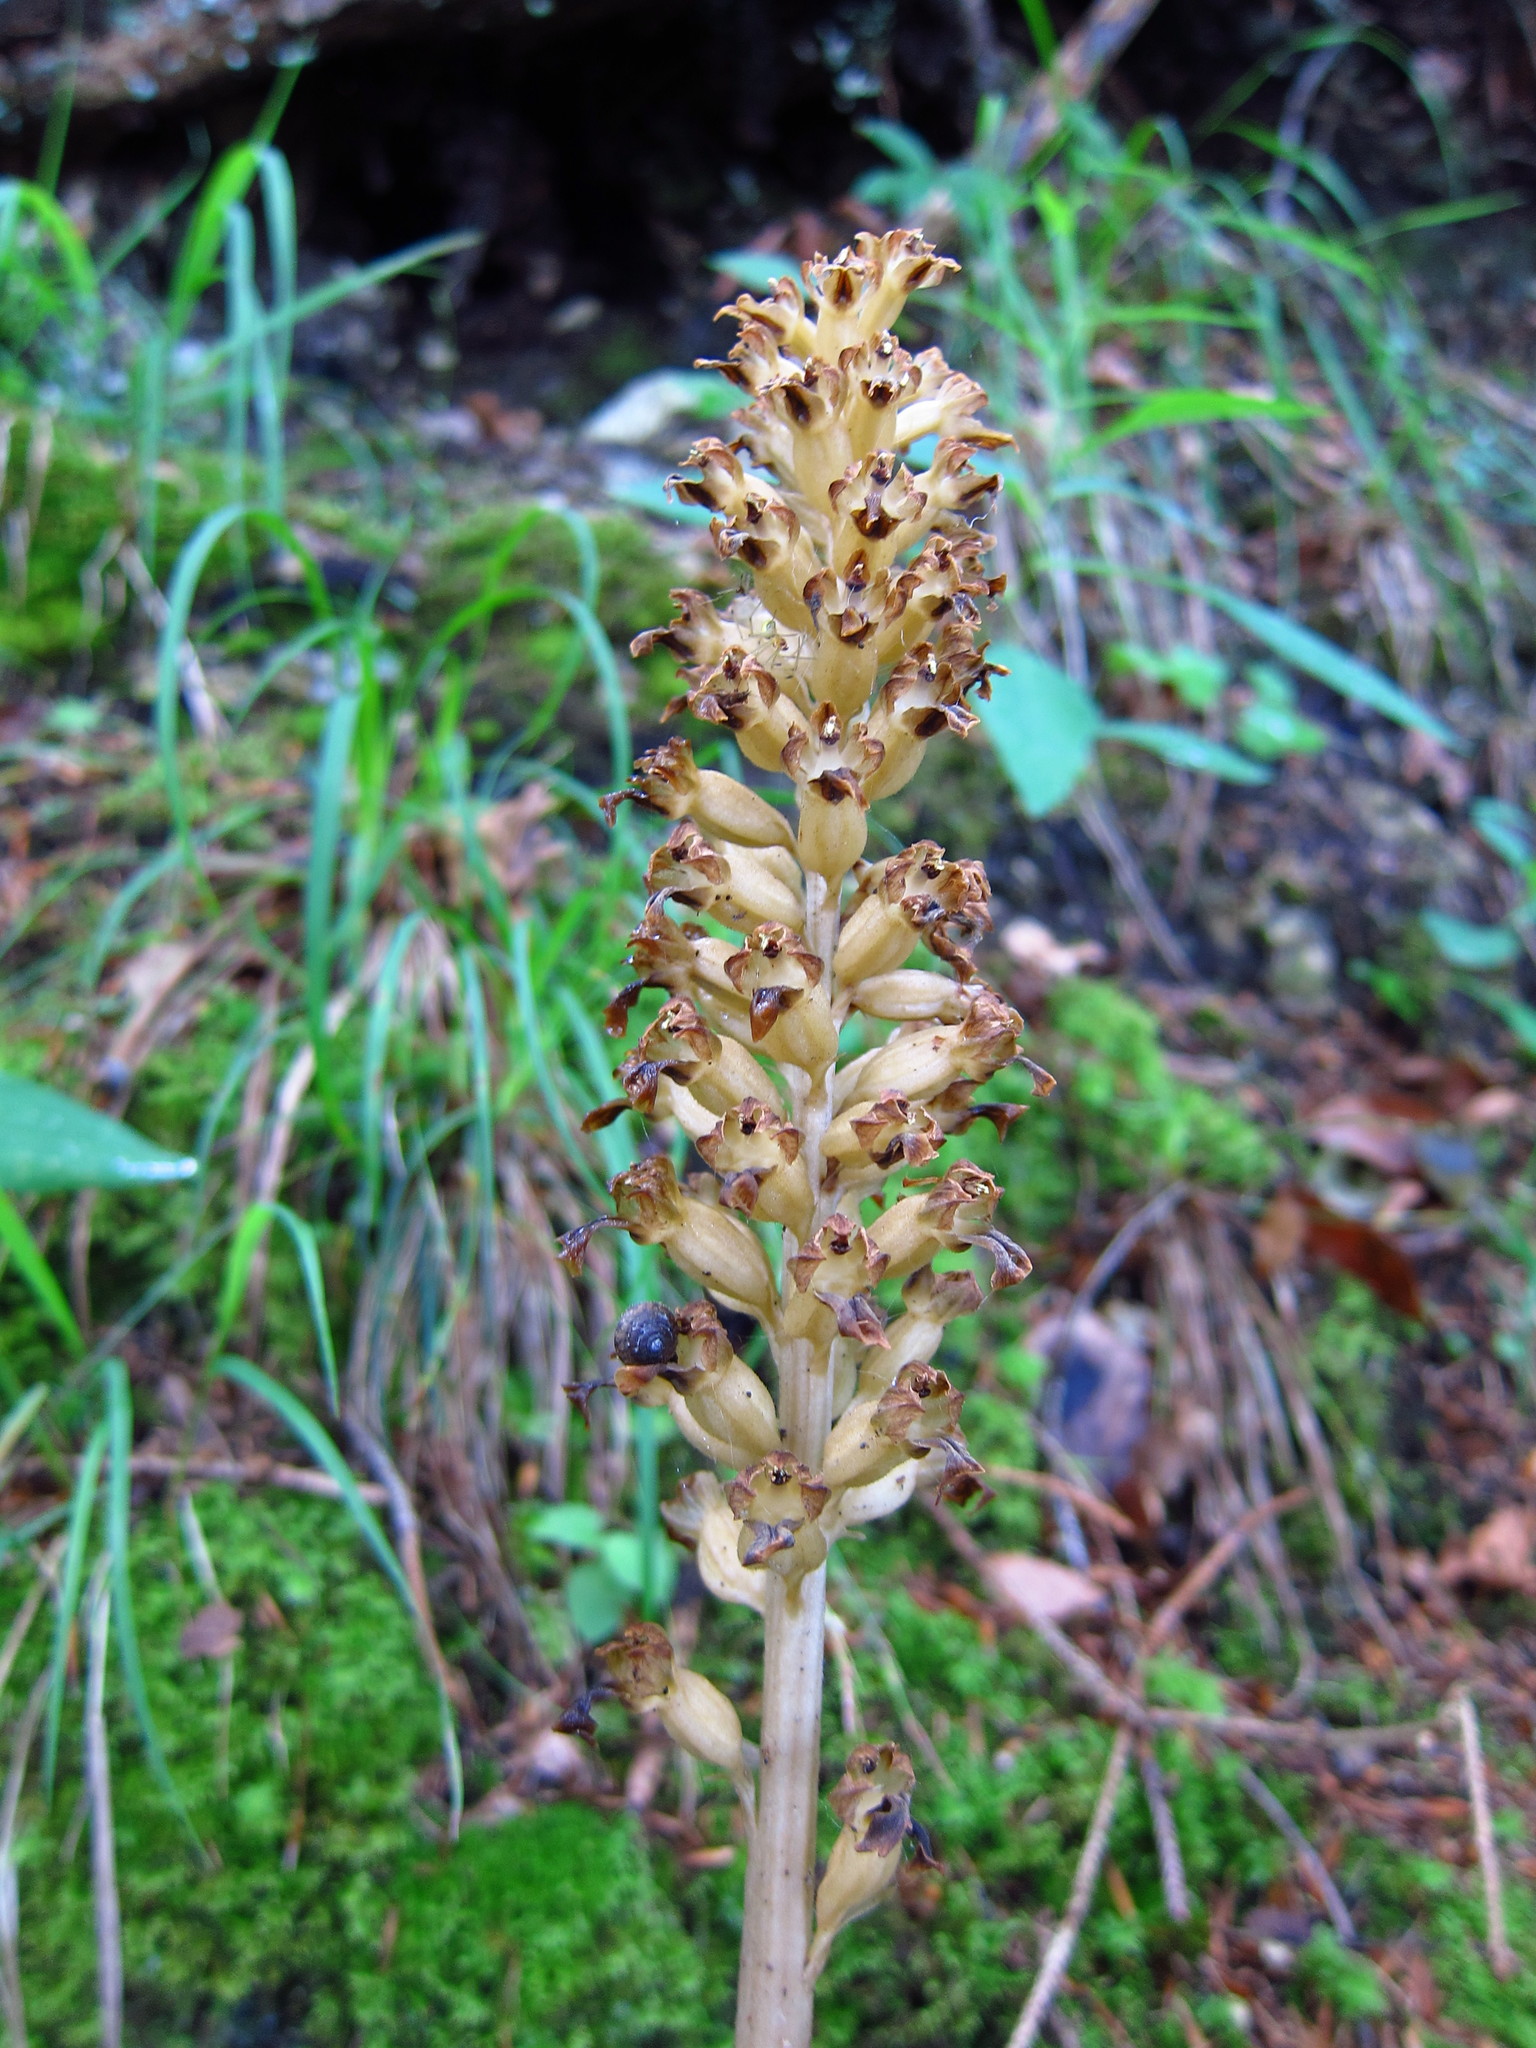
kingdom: Plantae
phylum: Tracheophyta
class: Liliopsida
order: Asparagales
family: Orchidaceae
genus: Neottia
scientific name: Neottia nidus-avis
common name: Bird's-nest orchid
